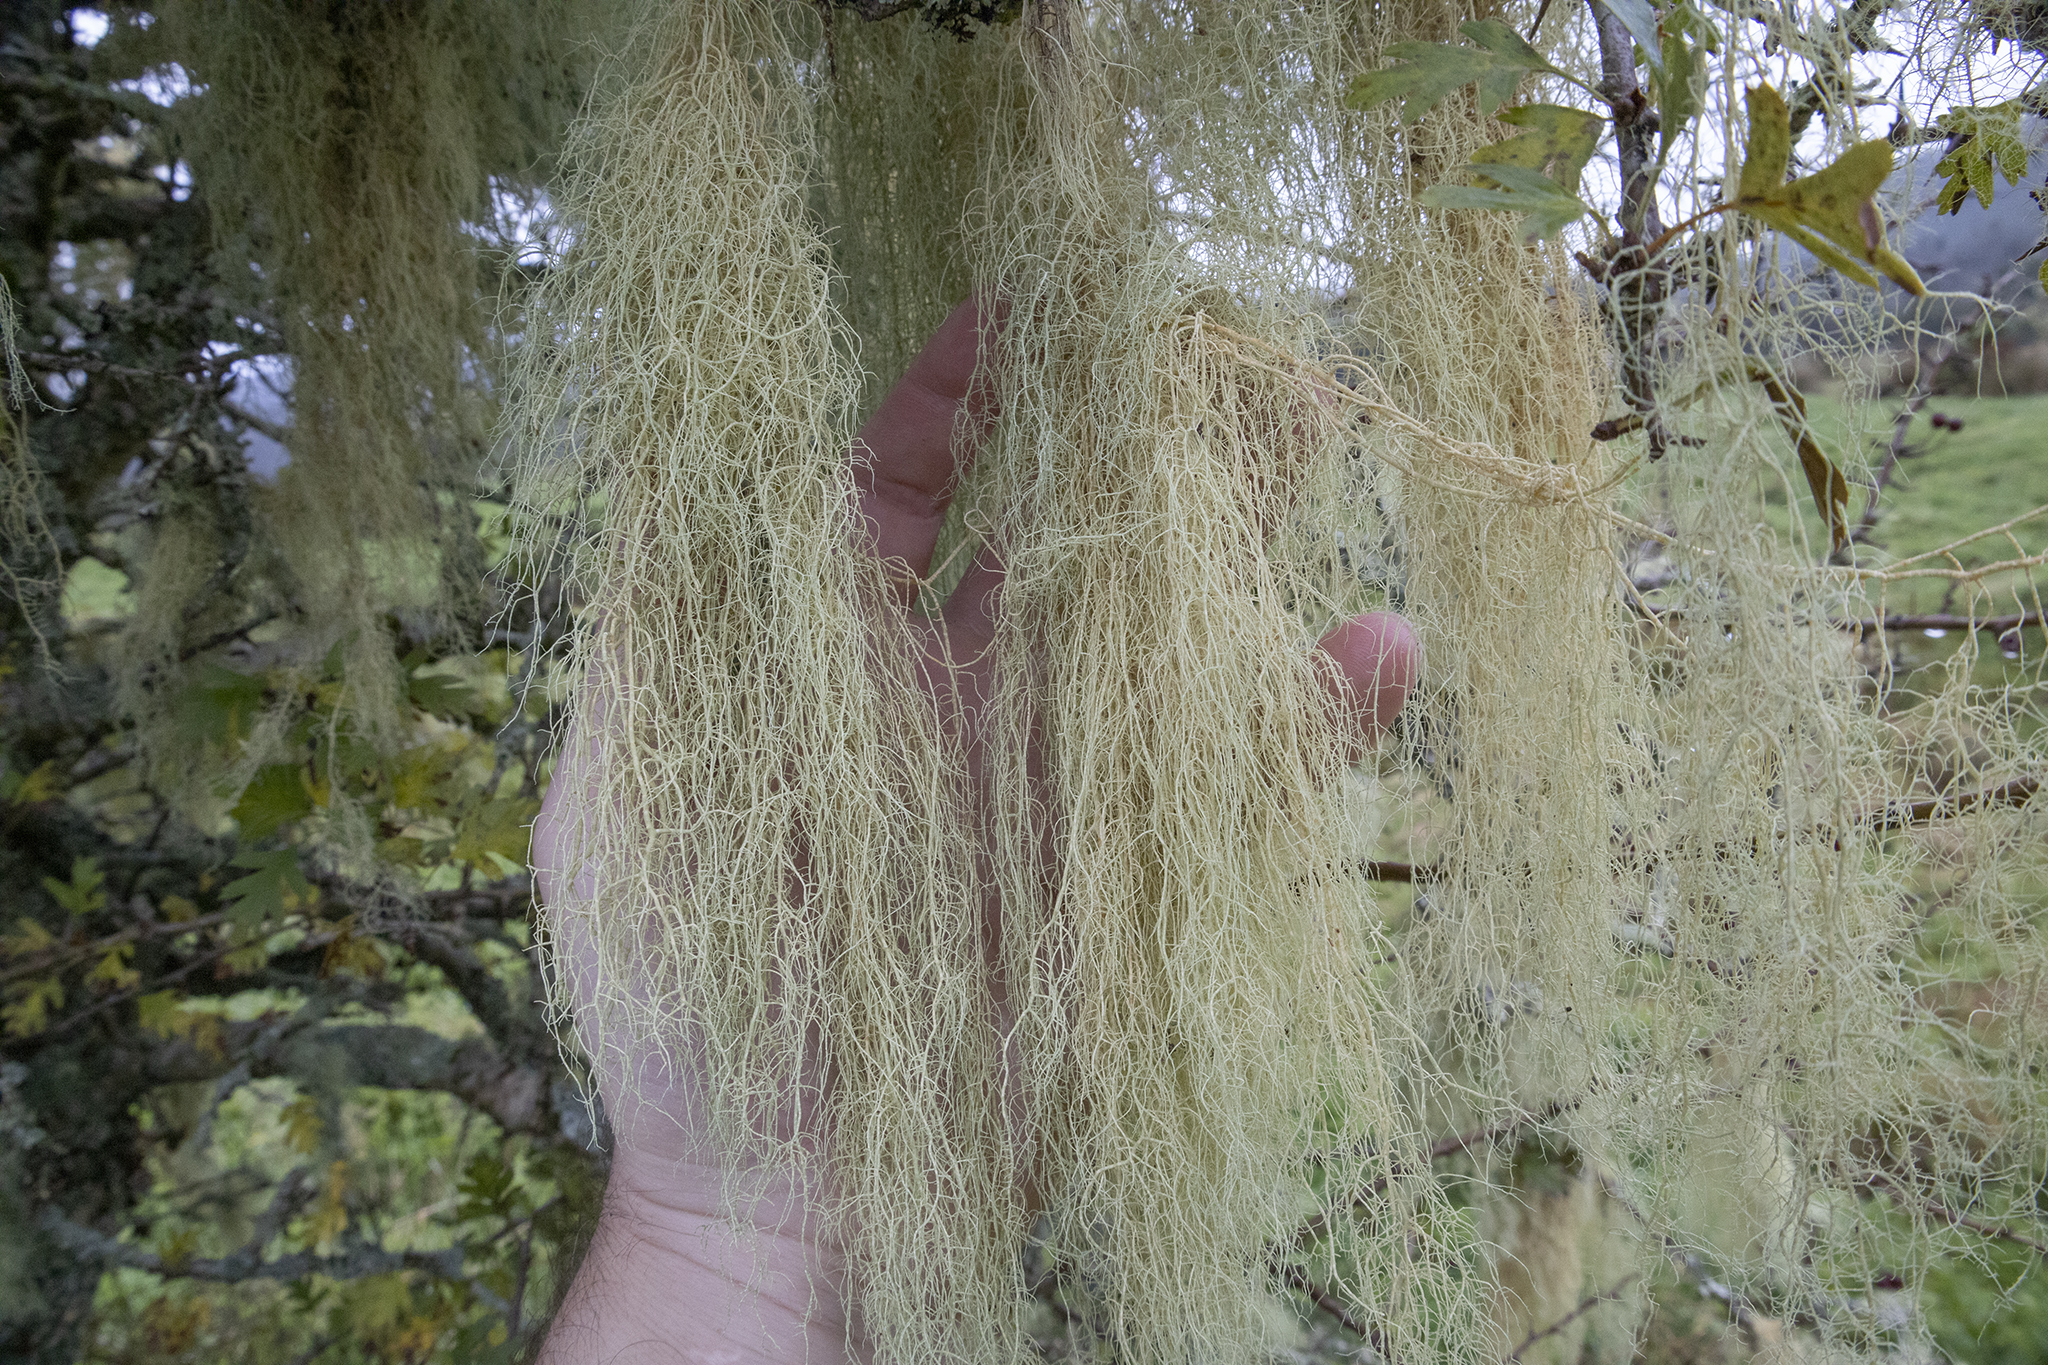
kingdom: Fungi
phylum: Ascomycota
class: Lecanoromycetes
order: Lecanorales
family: Parmeliaceae
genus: Usnea
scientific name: Usnea barbata
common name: Old man's beard lichen
